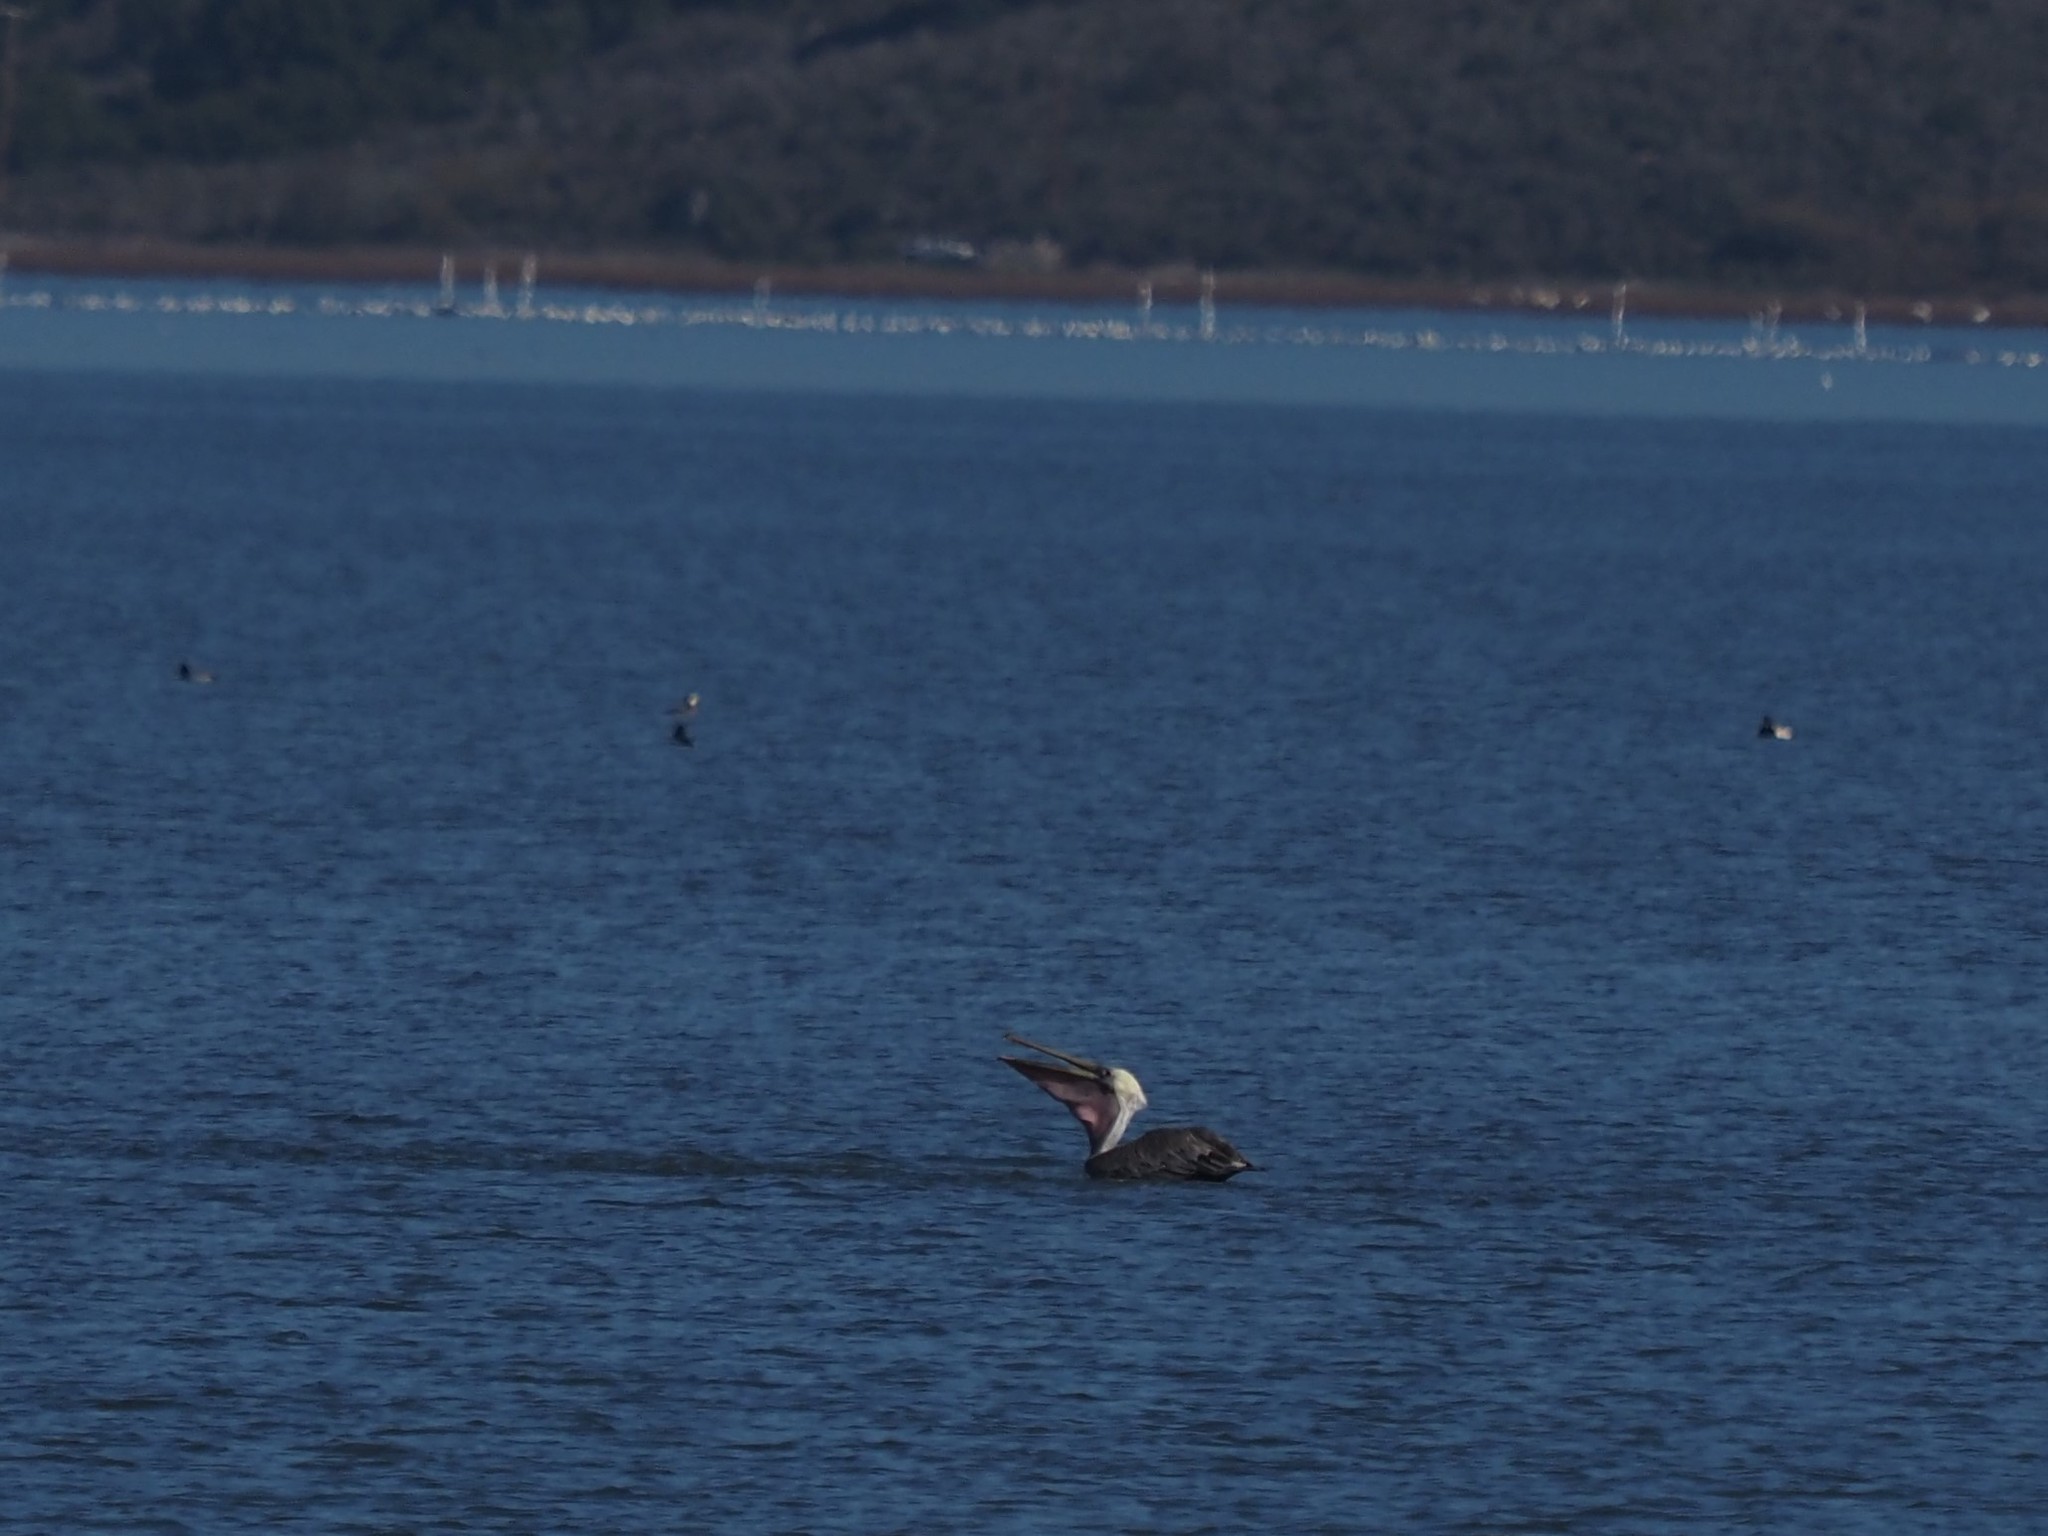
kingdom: Animalia
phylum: Chordata
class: Aves
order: Pelecaniformes
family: Pelecanidae
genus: Pelecanus
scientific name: Pelecanus occidentalis
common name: Brown pelican
